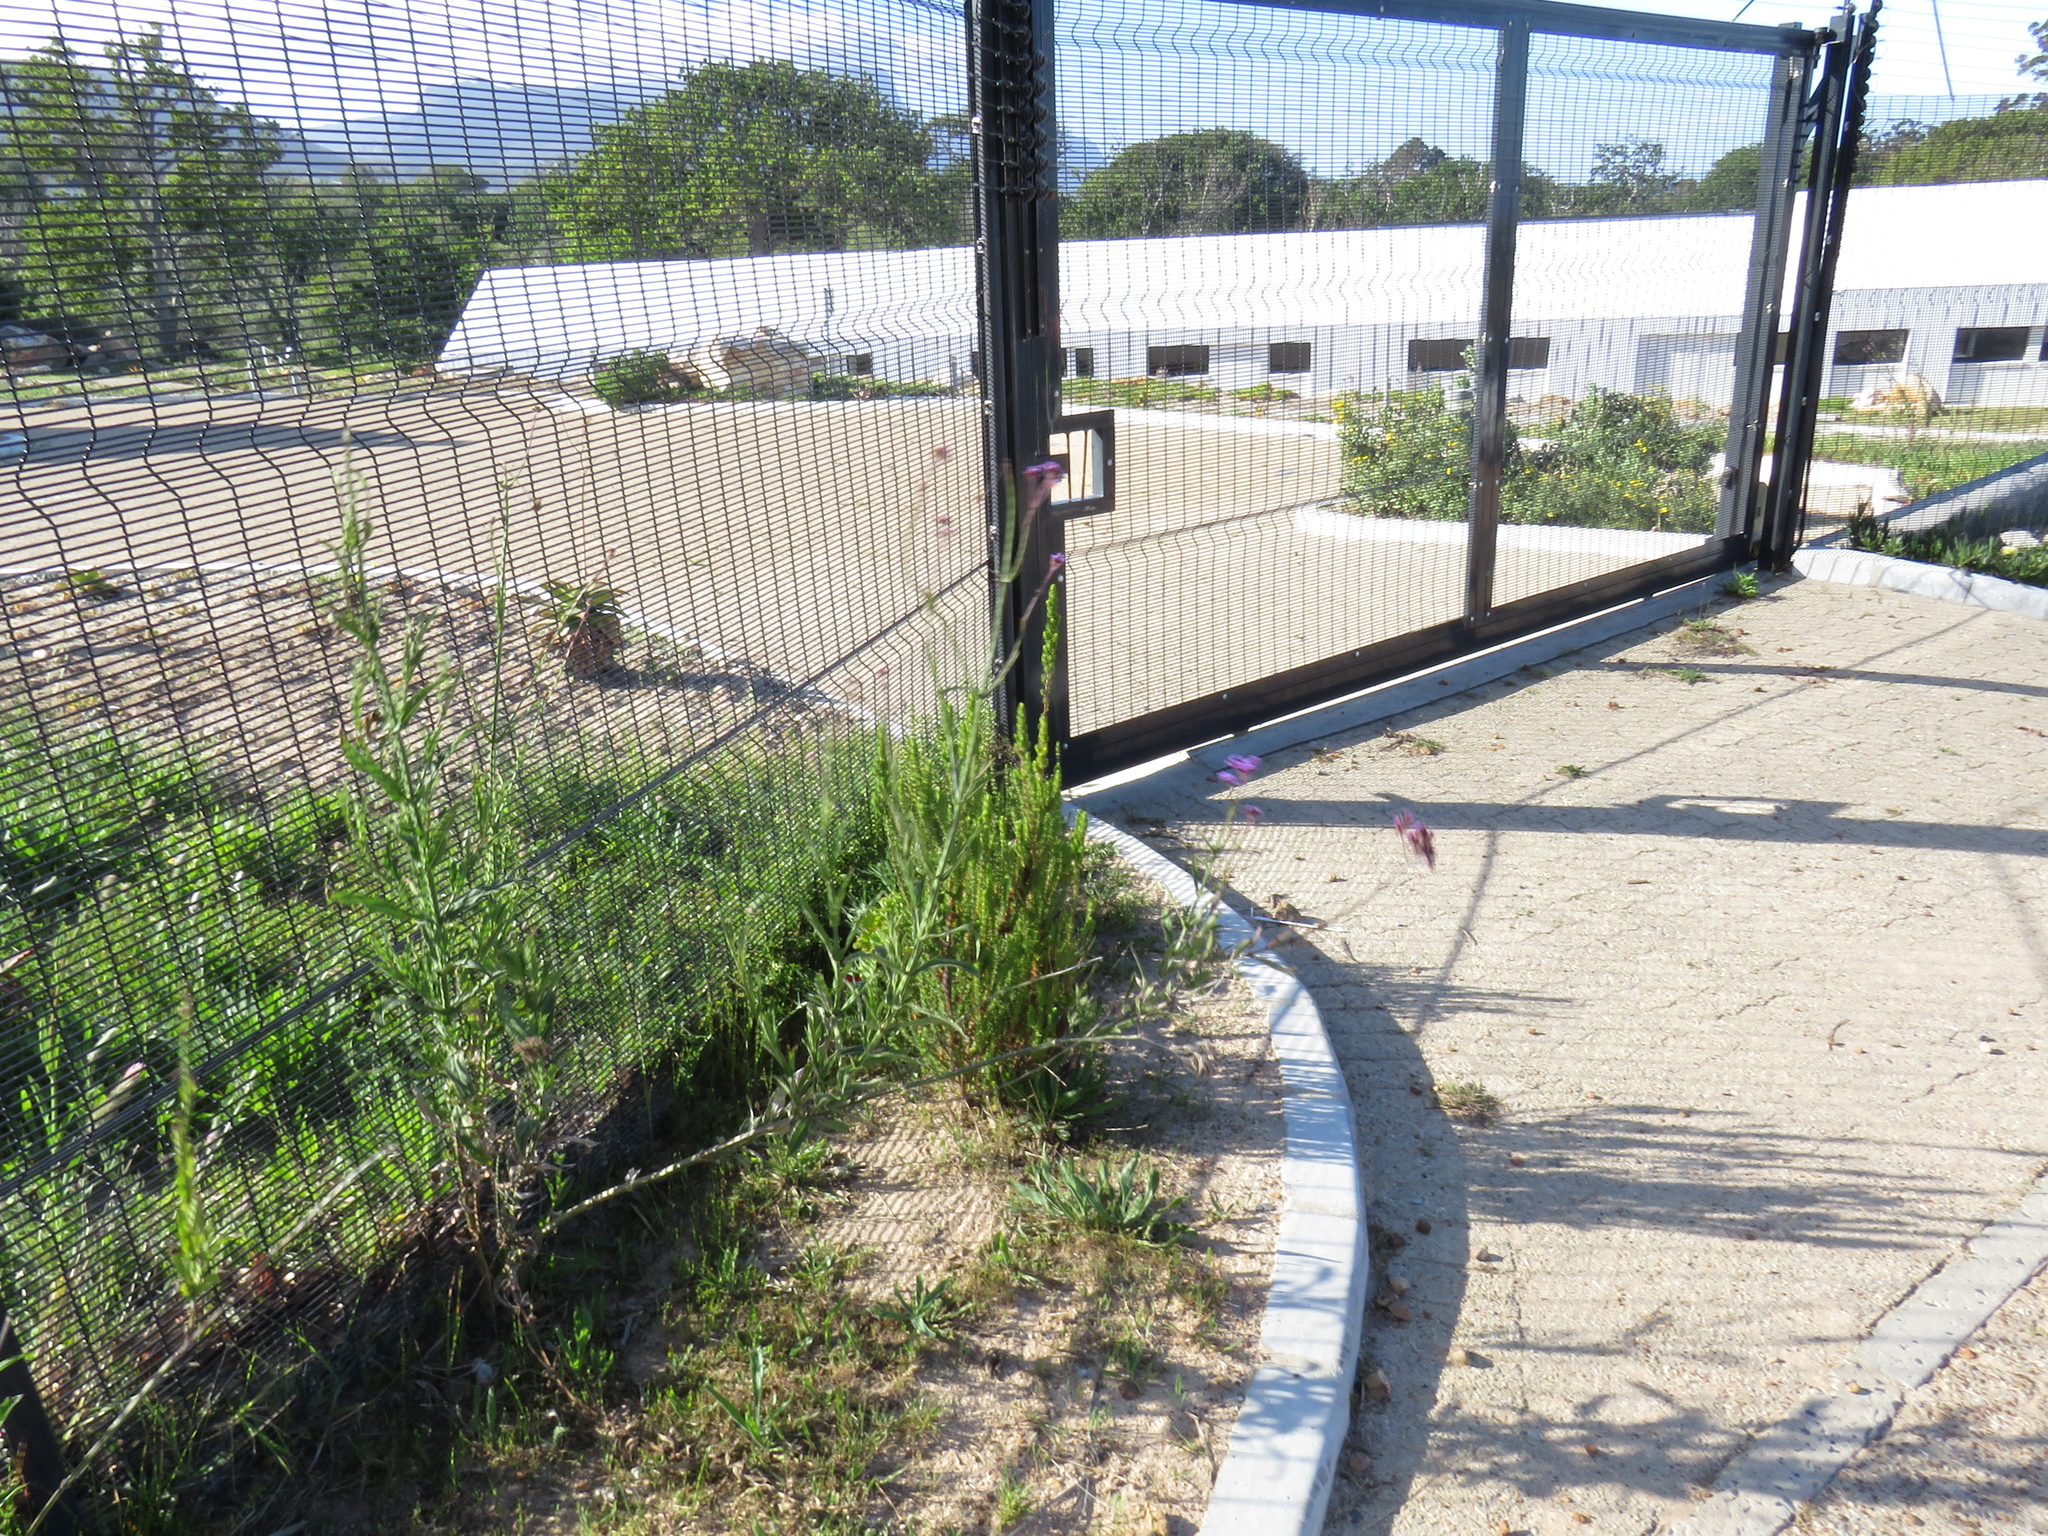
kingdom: Plantae
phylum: Tracheophyta
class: Magnoliopsida
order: Lamiales
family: Verbenaceae
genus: Verbena
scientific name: Verbena bonariensis
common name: Purpletop vervain
